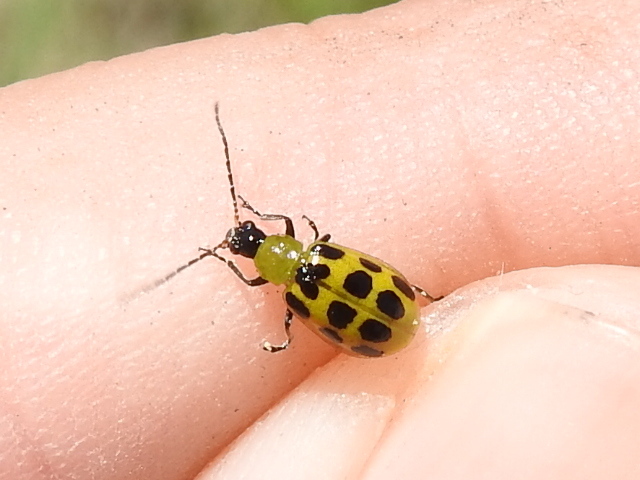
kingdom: Animalia
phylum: Arthropoda
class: Insecta
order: Coleoptera
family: Chrysomelidae
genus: Diabrotica
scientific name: Diabrotica undecimpunctata
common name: Spotted cucumber beetle
